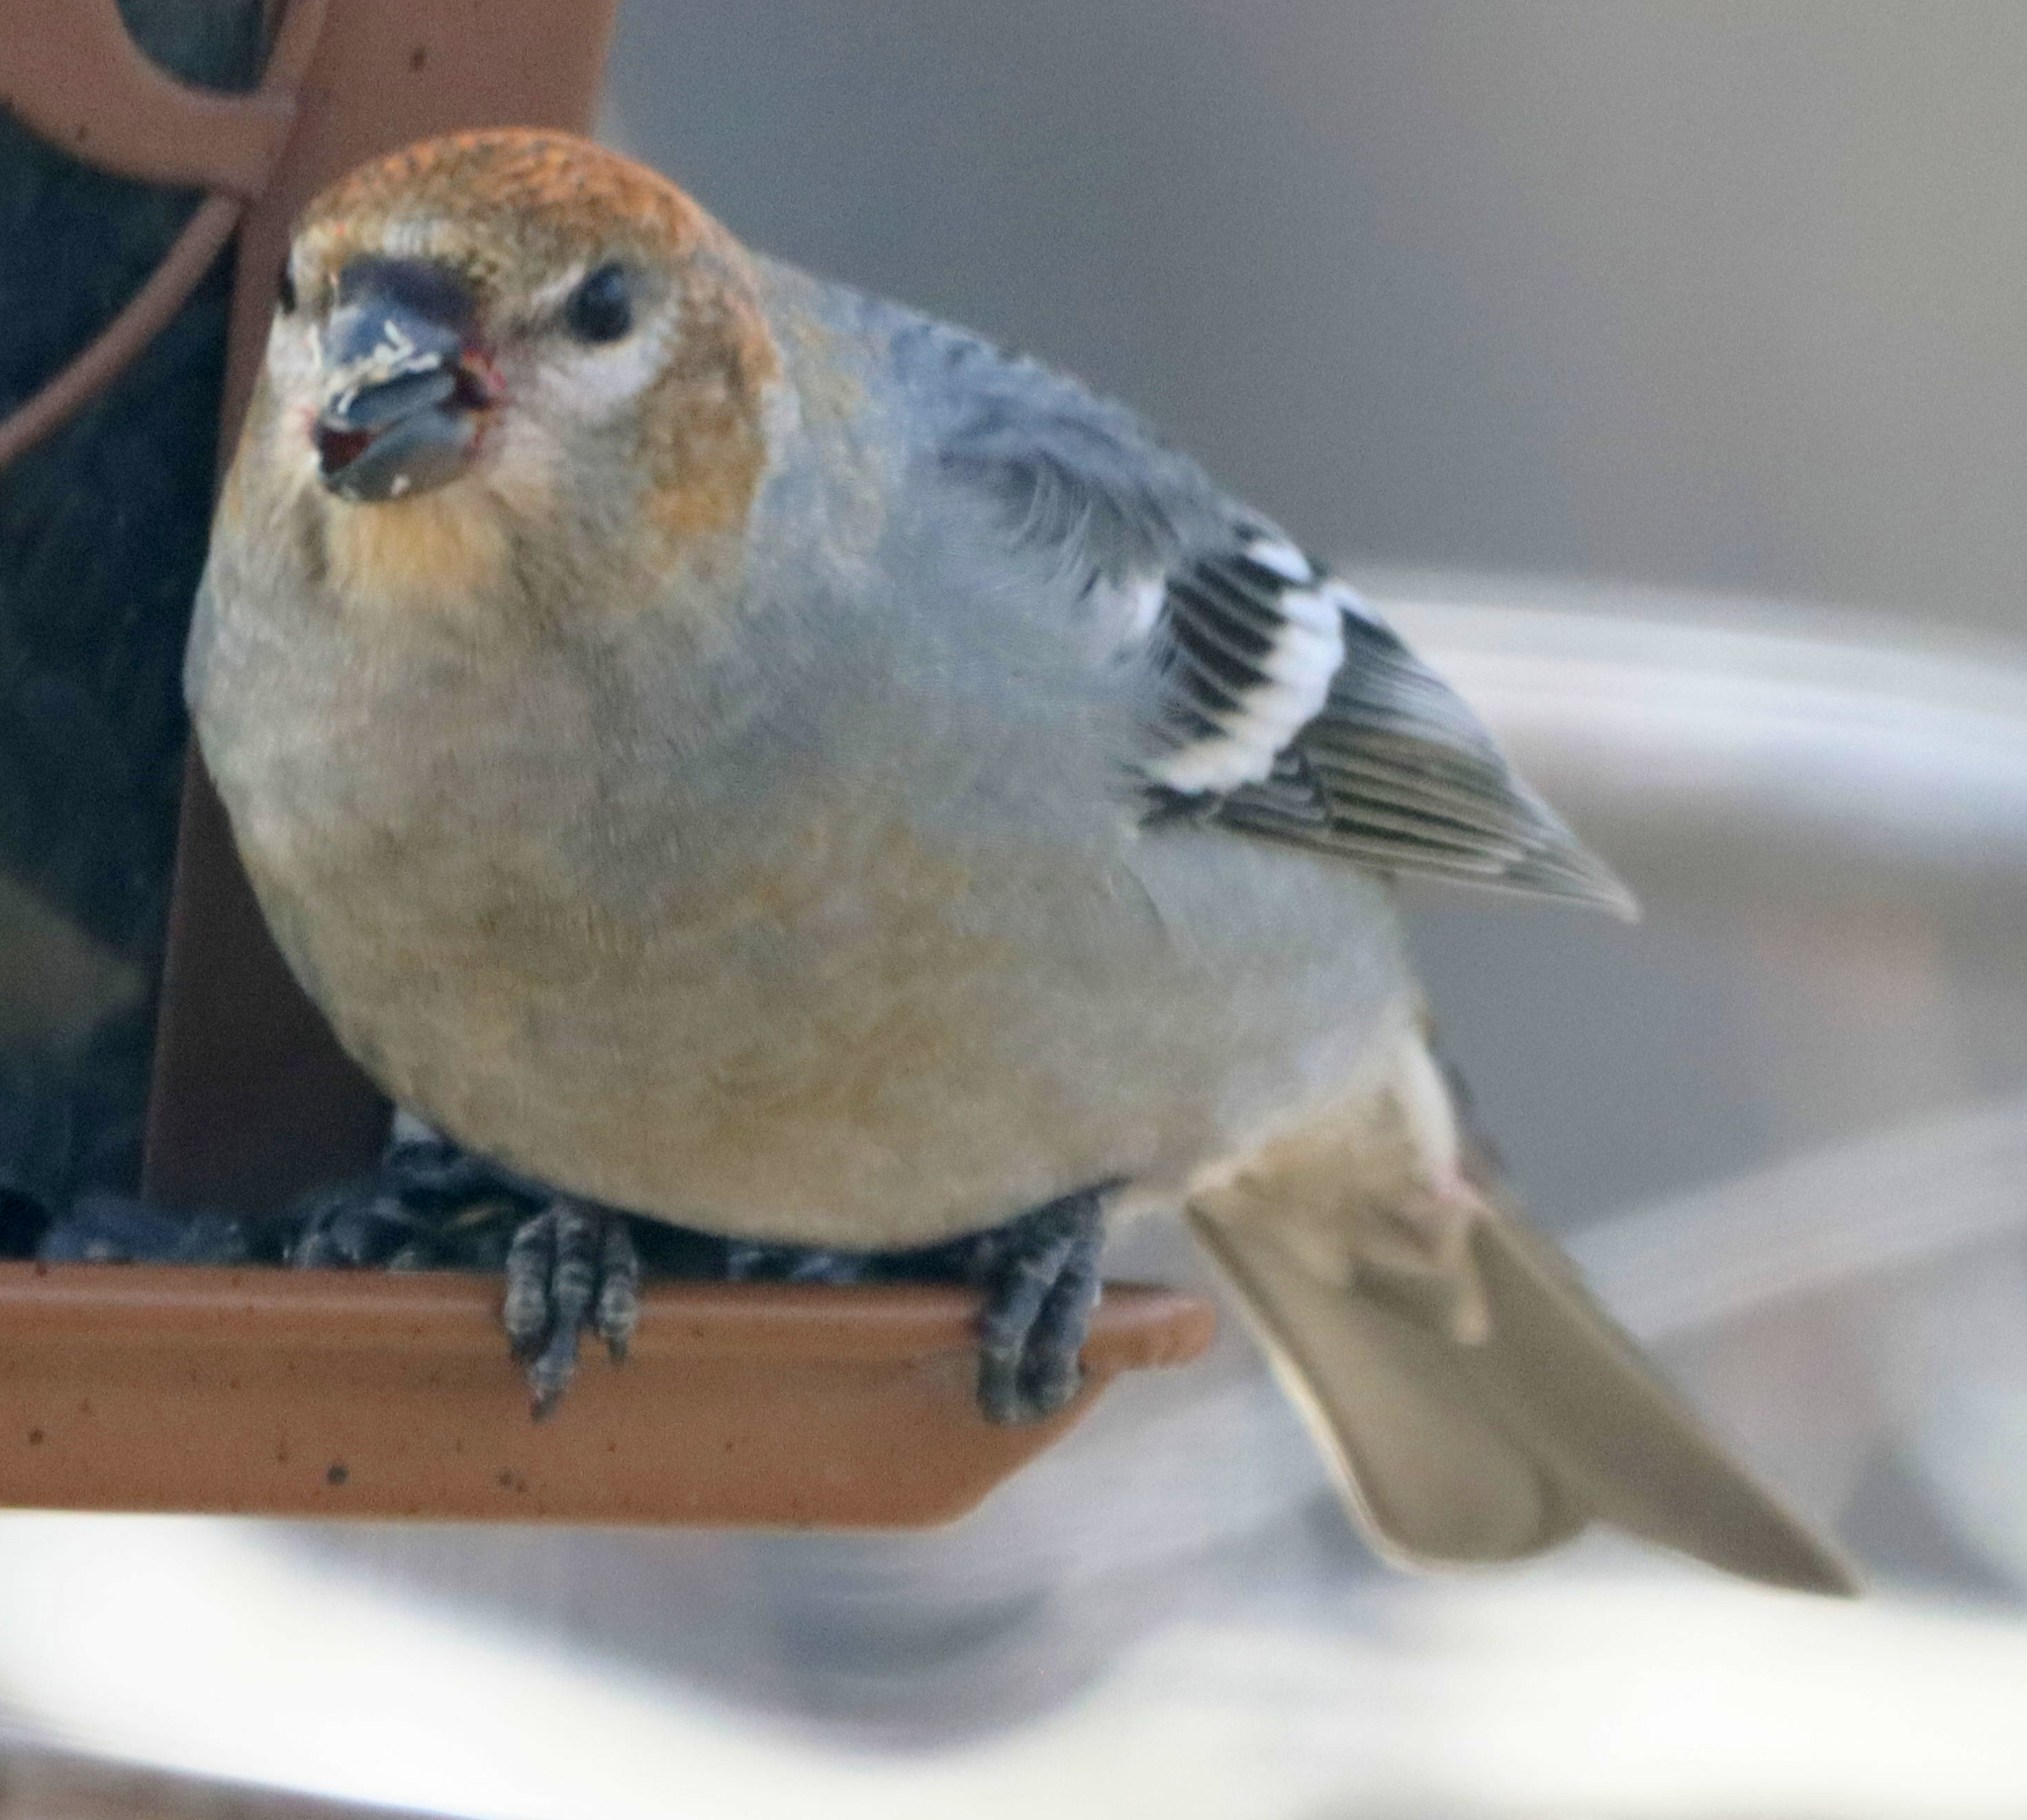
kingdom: Animalia
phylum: Chordata
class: Aves
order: Passeriformes
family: Fringillidae
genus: Pinicola
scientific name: Pinicola enucleator
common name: Pine grosbeak
